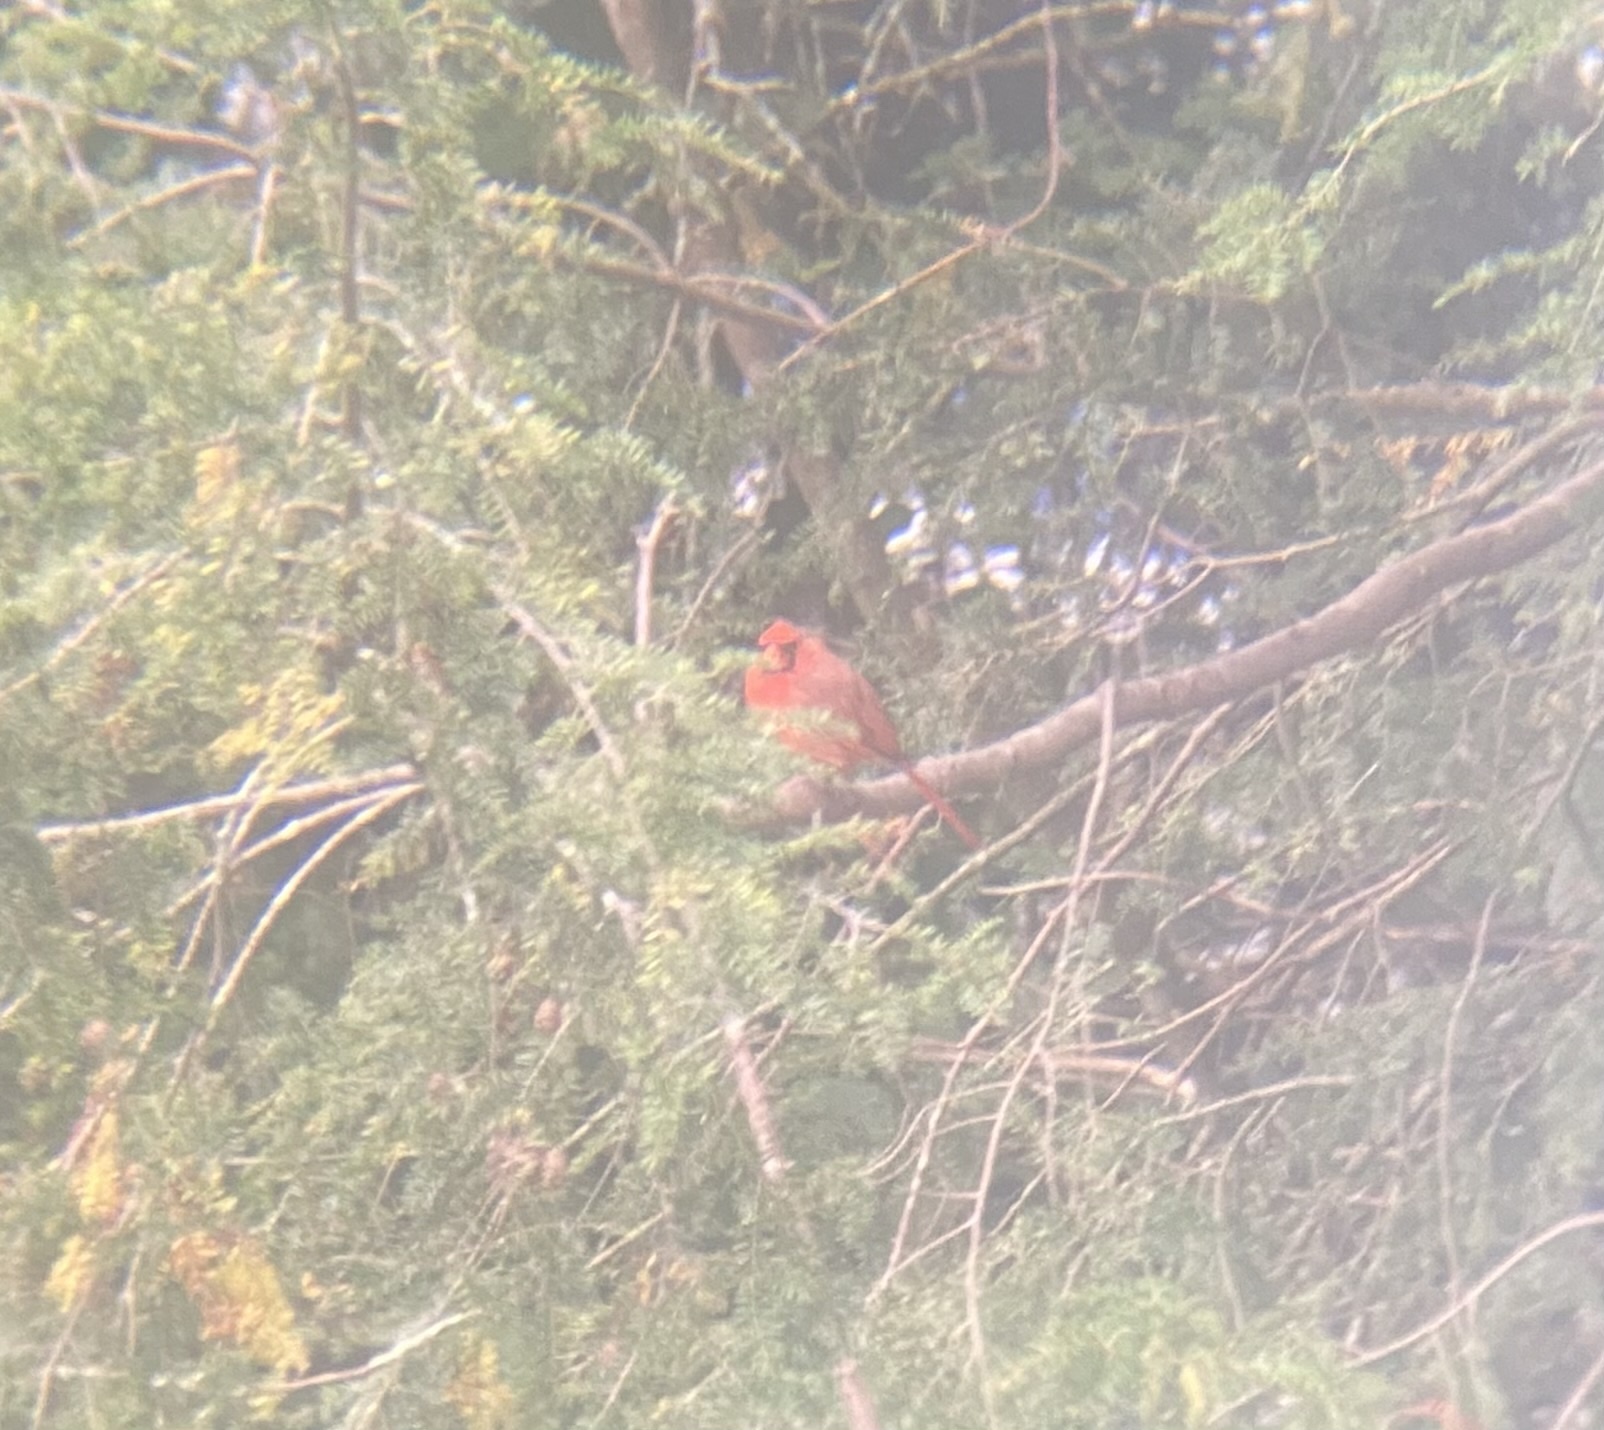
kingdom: Animalia
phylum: Chordata
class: Aves
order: Passeriformes
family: Cardinalidae
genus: Cardinalis
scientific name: Cardinalis cardinalis
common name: Northern cardinal
